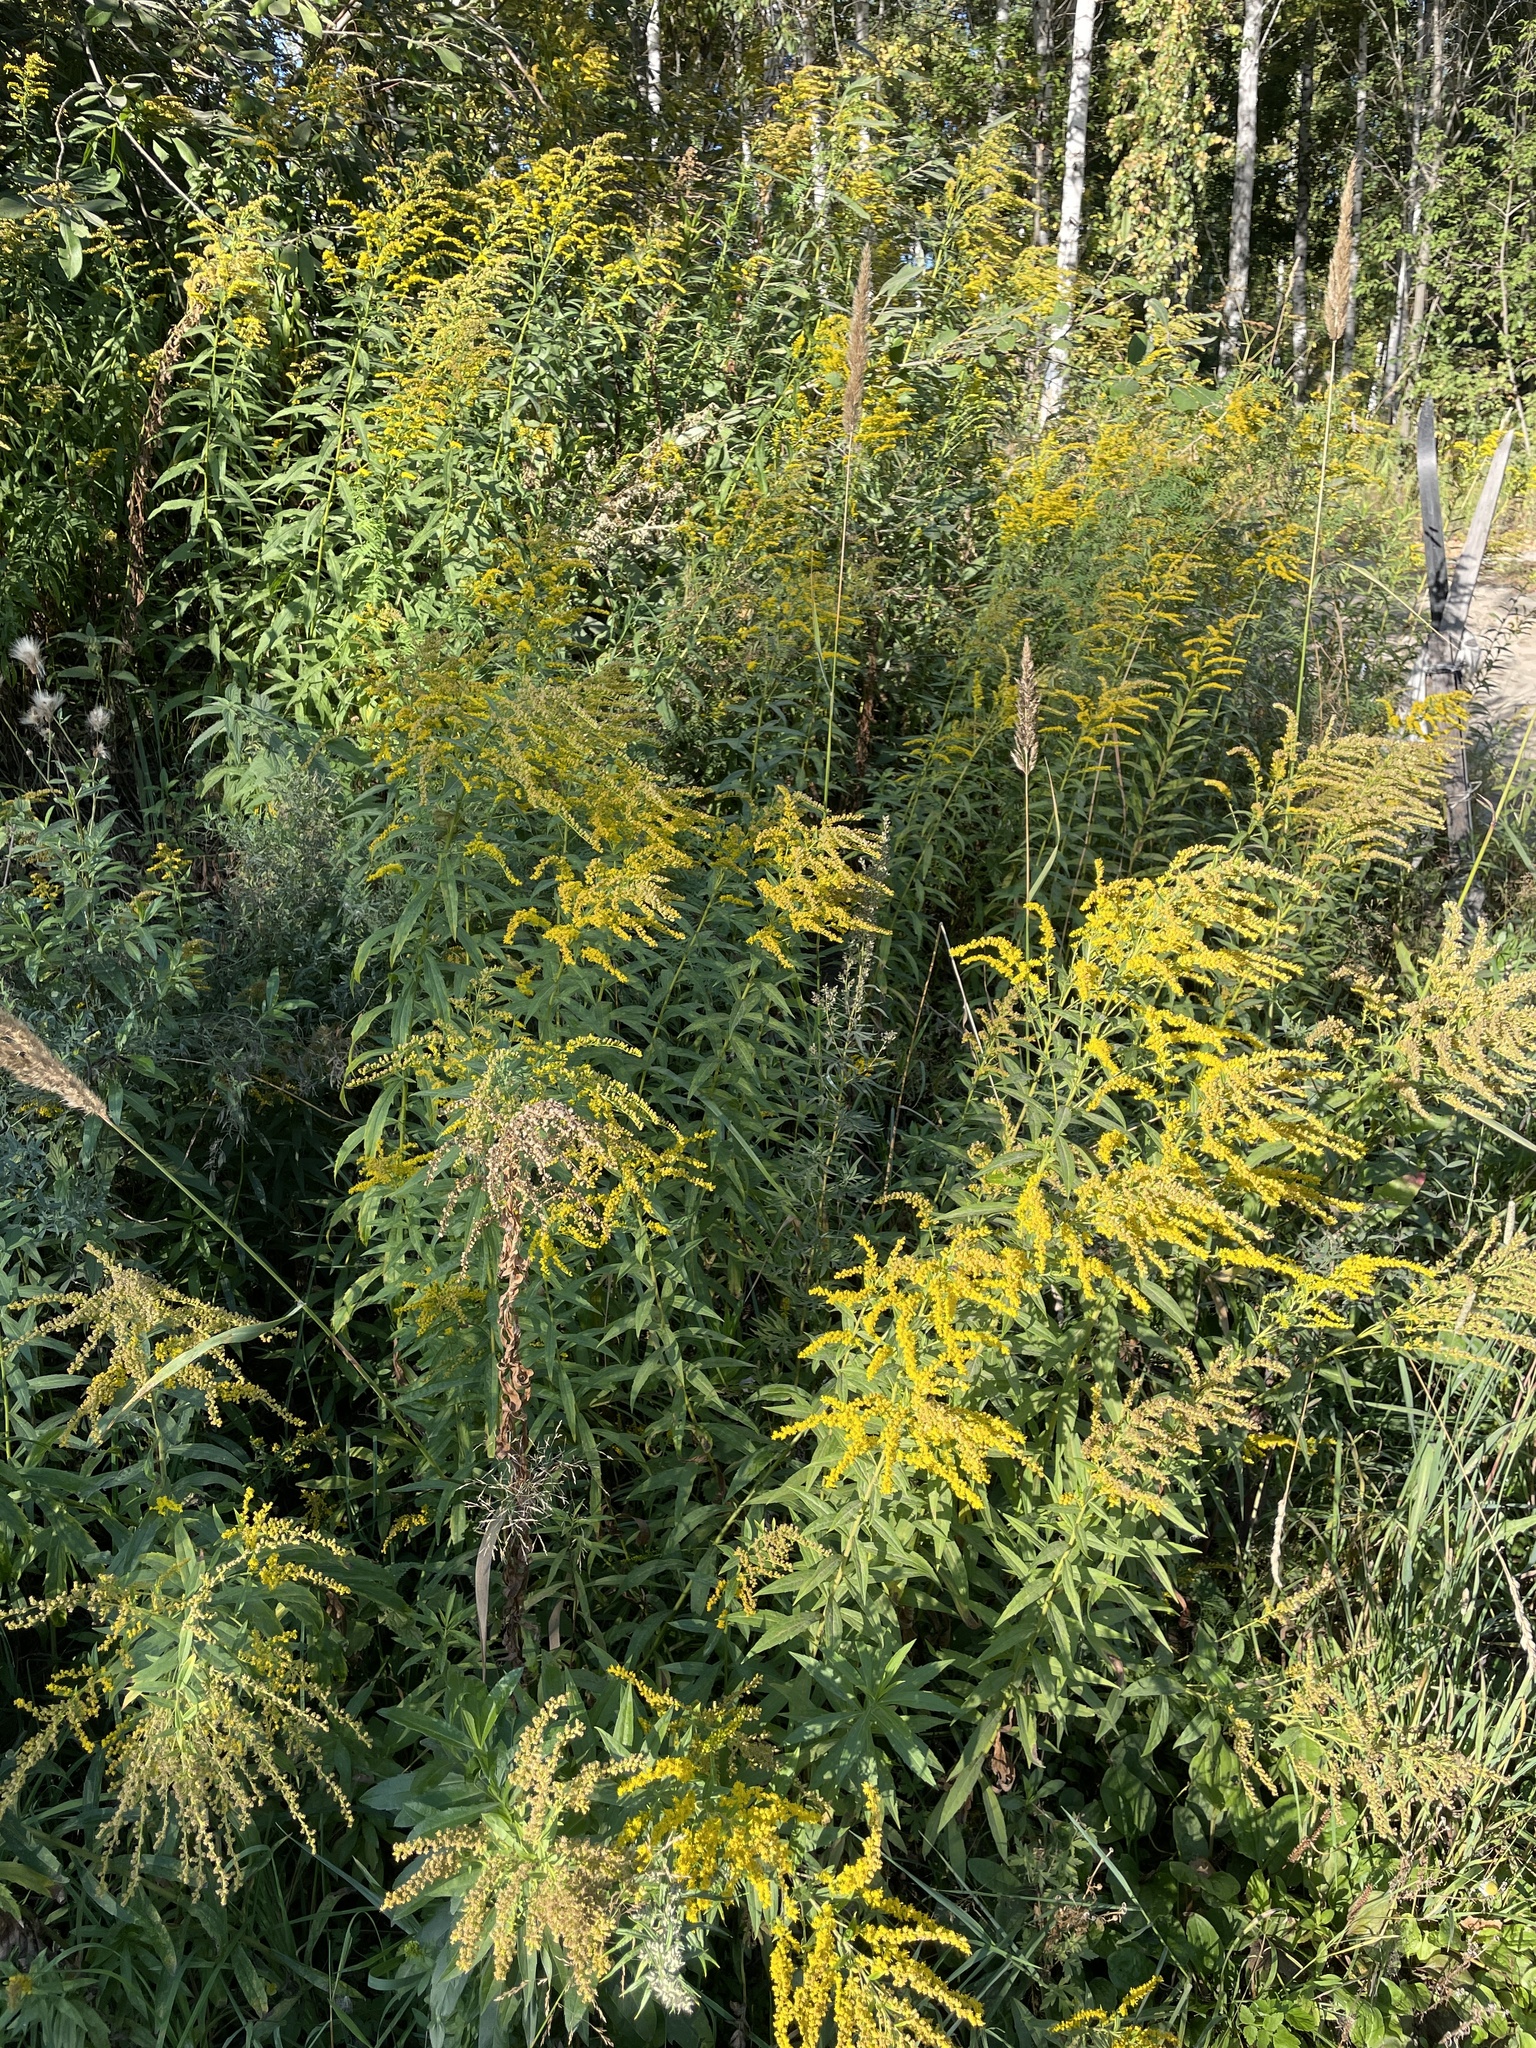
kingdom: Plantae
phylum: Tracheophyta
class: Magnoliopsida
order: Asterales
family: Asteraceae
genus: Solidago
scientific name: Solidago canadensis
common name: Canada goldenrod
